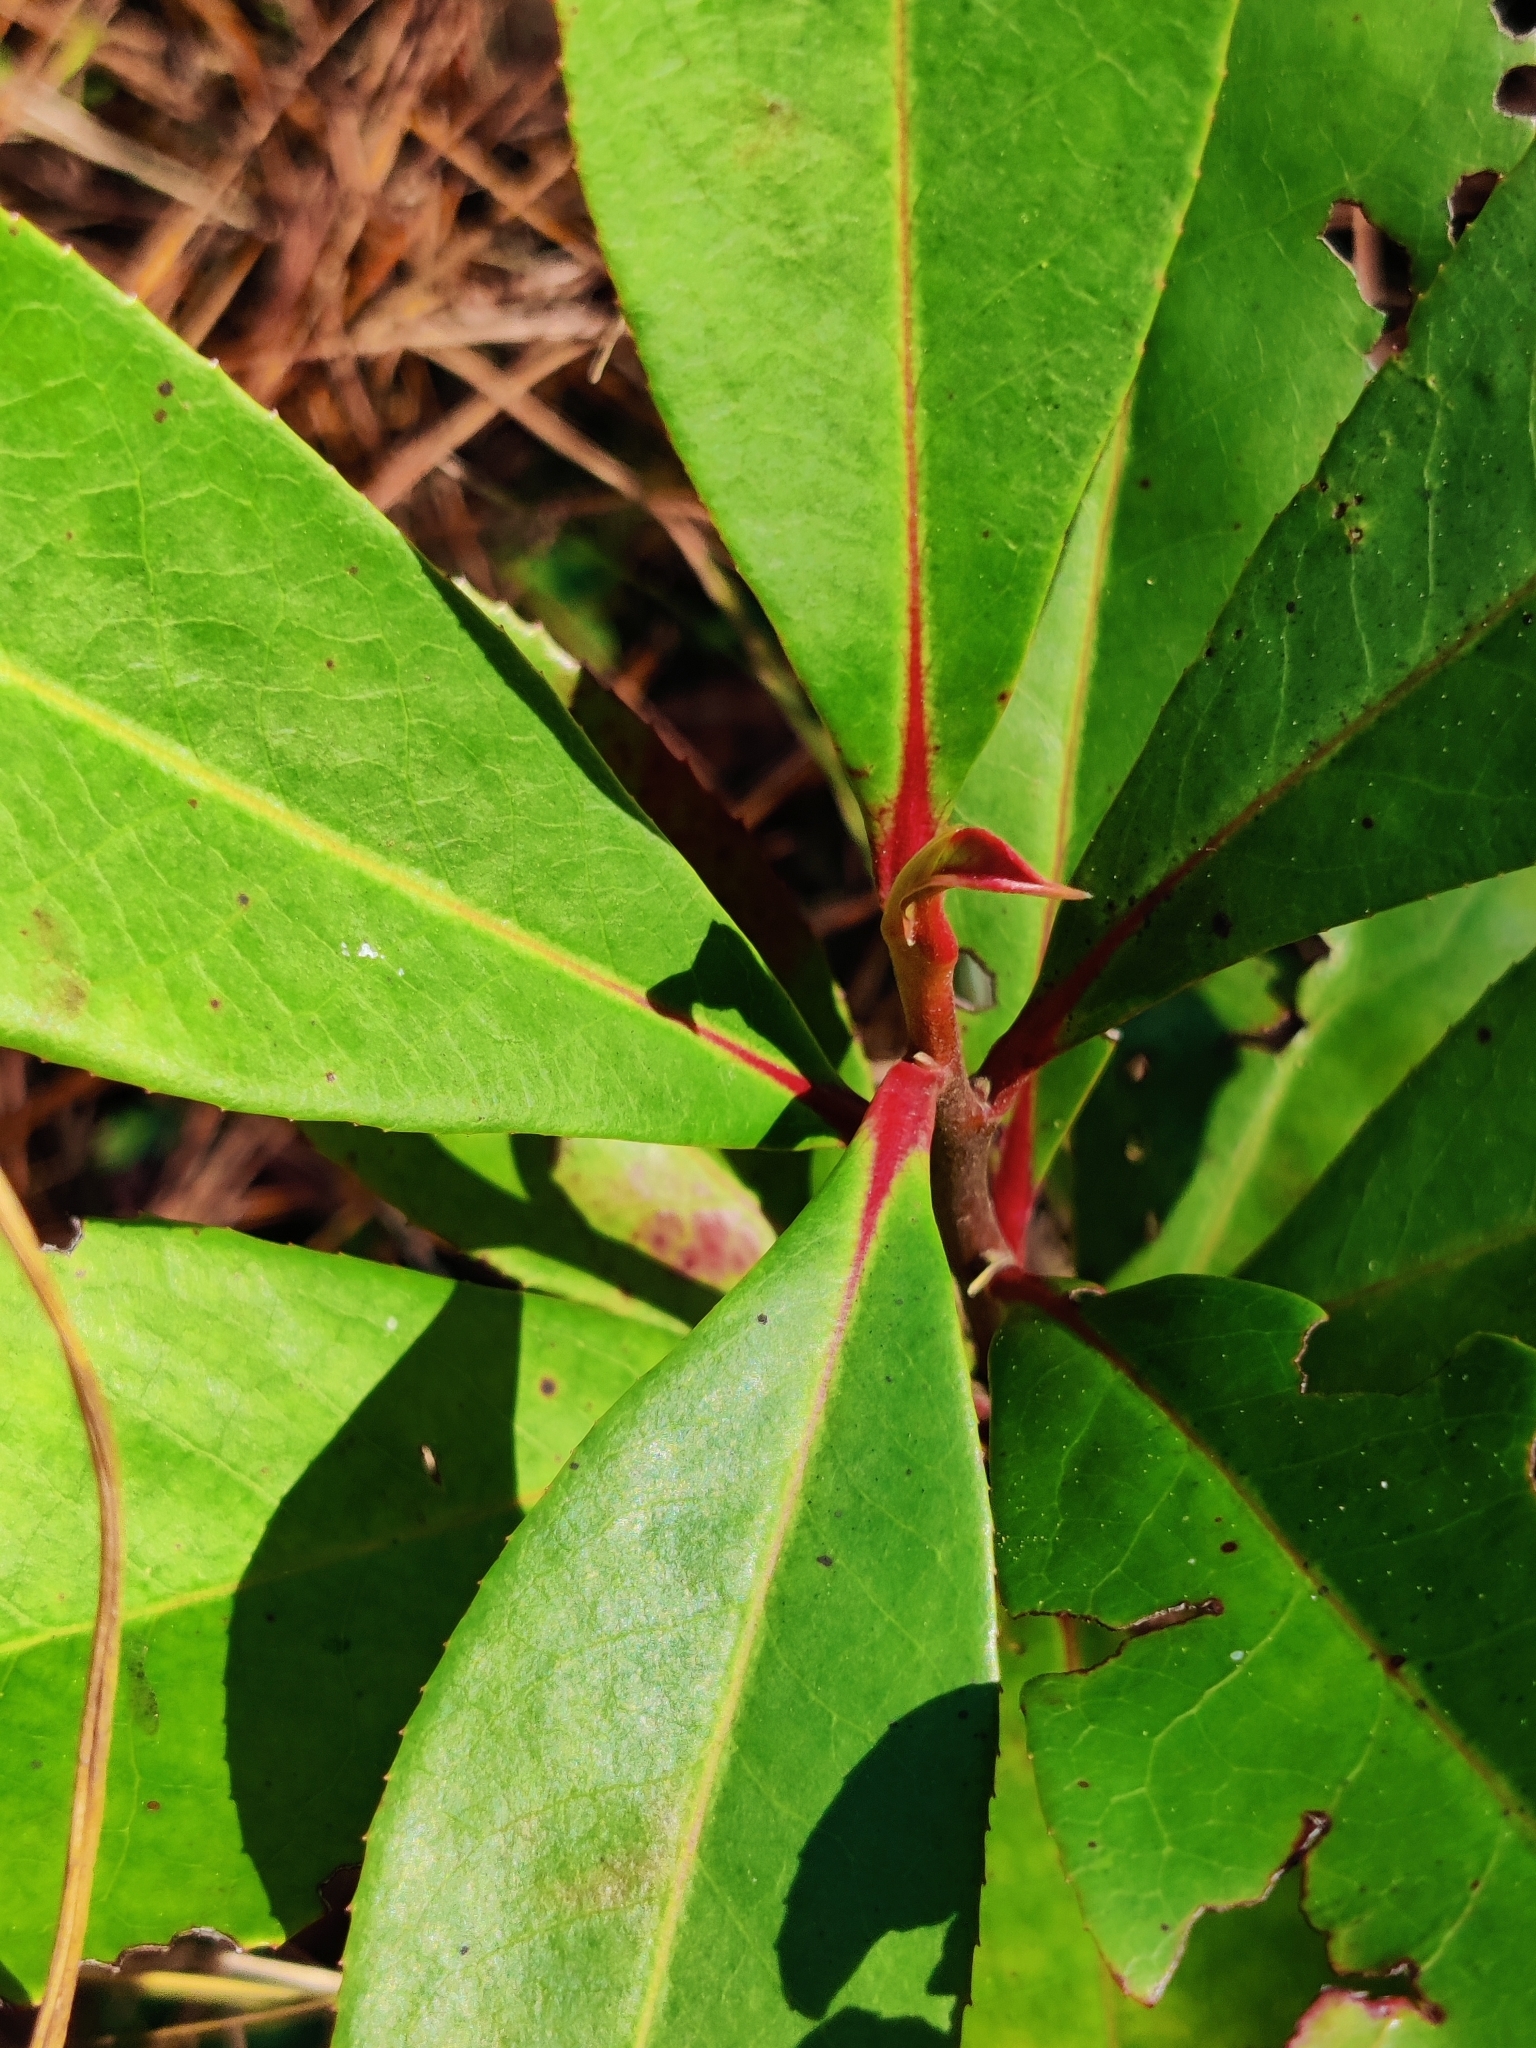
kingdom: Plantae
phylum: Tracheophyta
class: Magnoliopsida
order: Ericales
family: Theaceae
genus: Gordonia
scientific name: Gordonia lasianthus
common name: Loblolly bay
